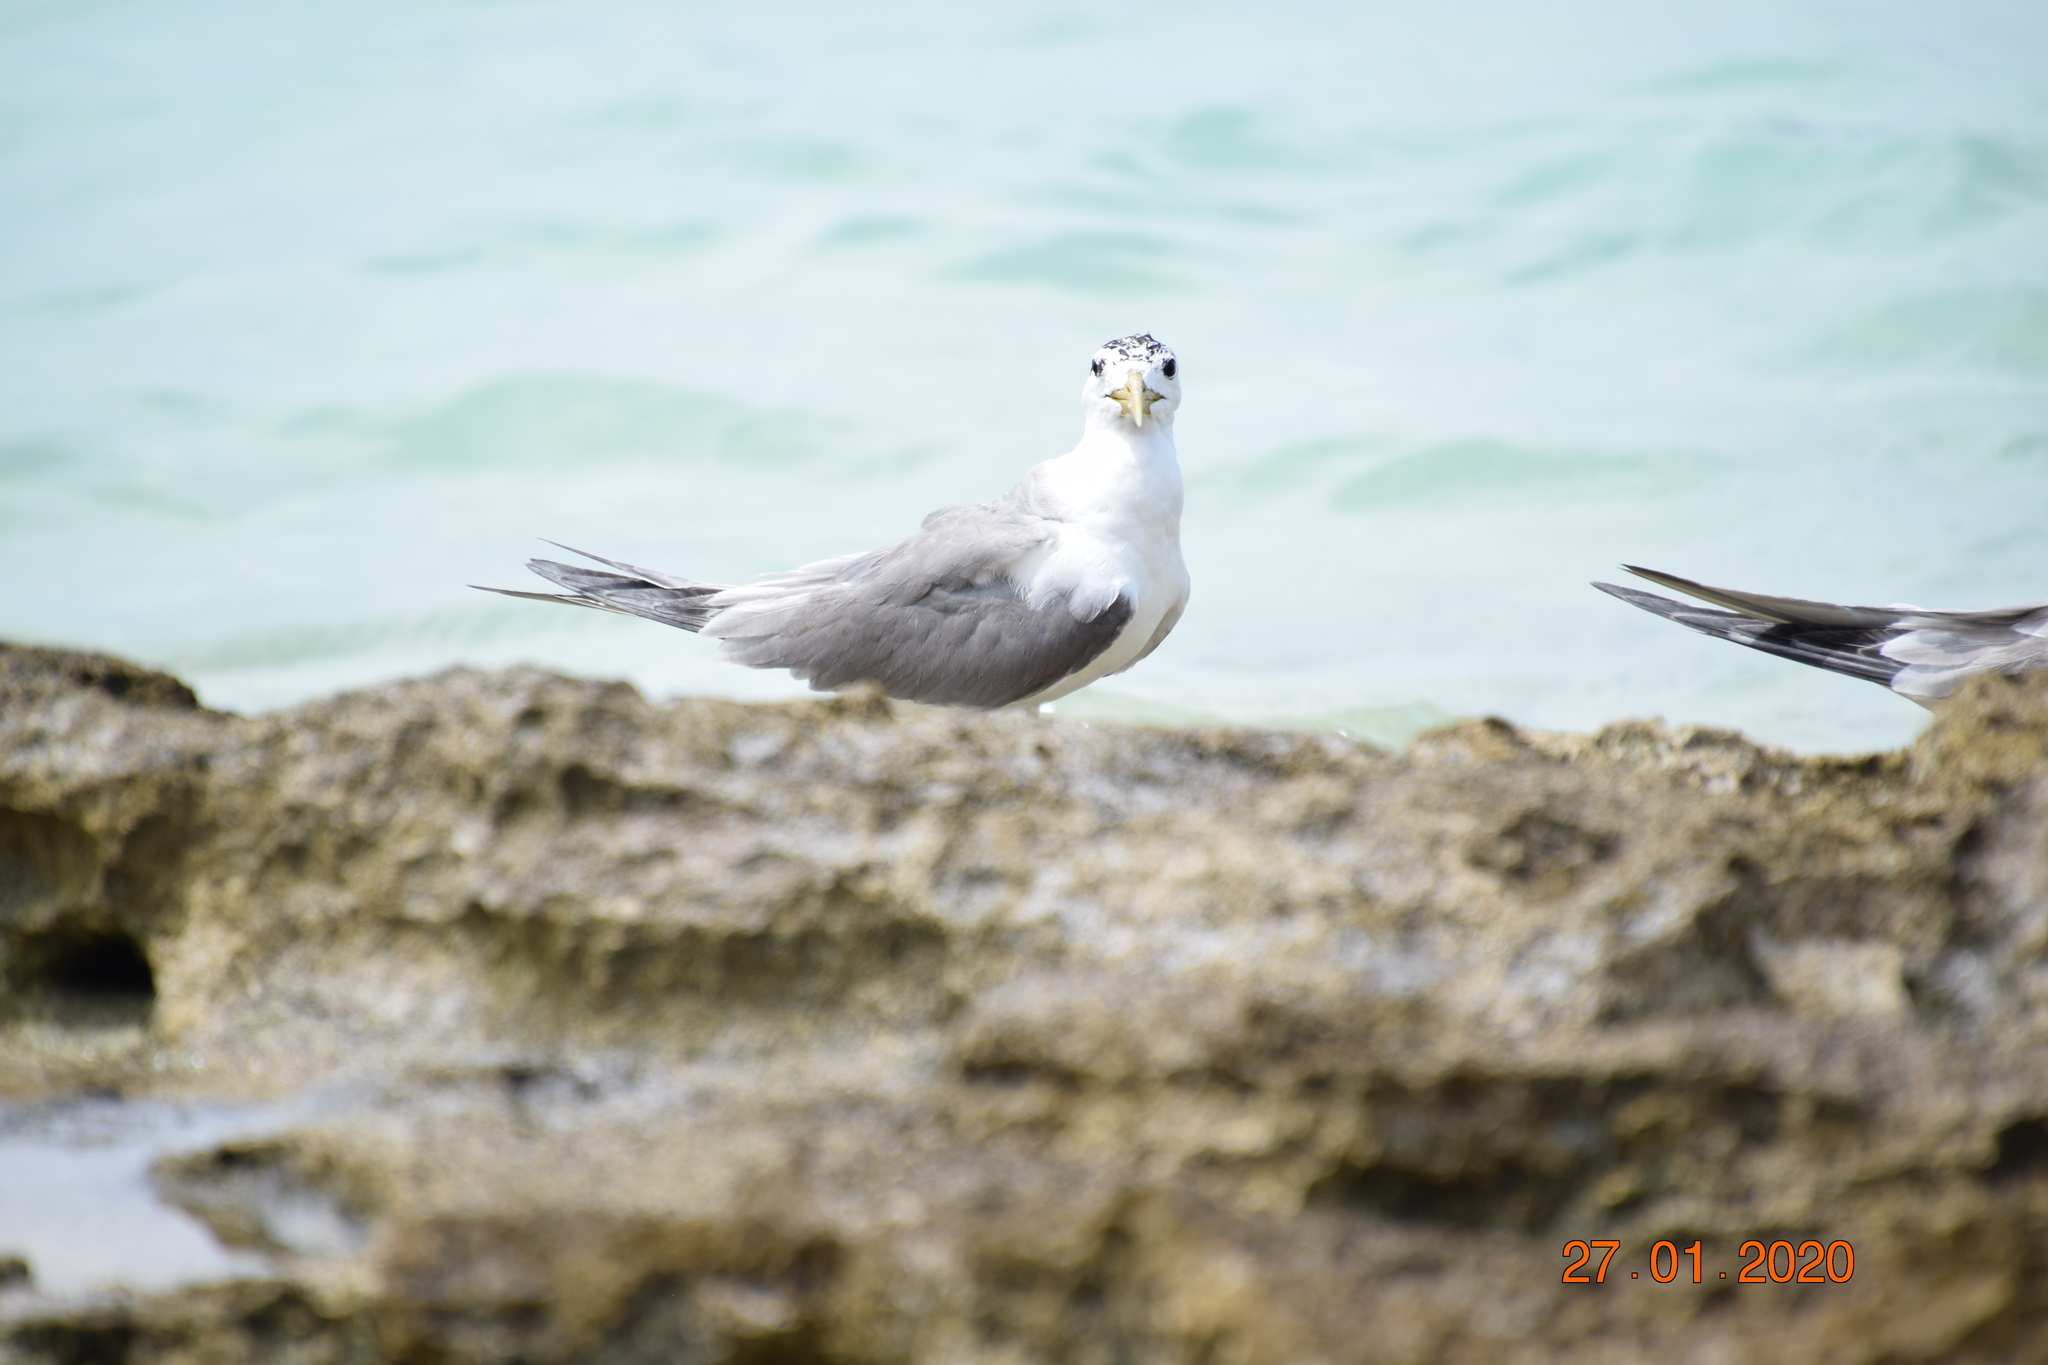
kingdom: Animalia
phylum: Chordata
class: Aves
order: Charadriiformes
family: Laridae
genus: Thalasseus
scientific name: Thalasseus bergii
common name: Greater crested tern
